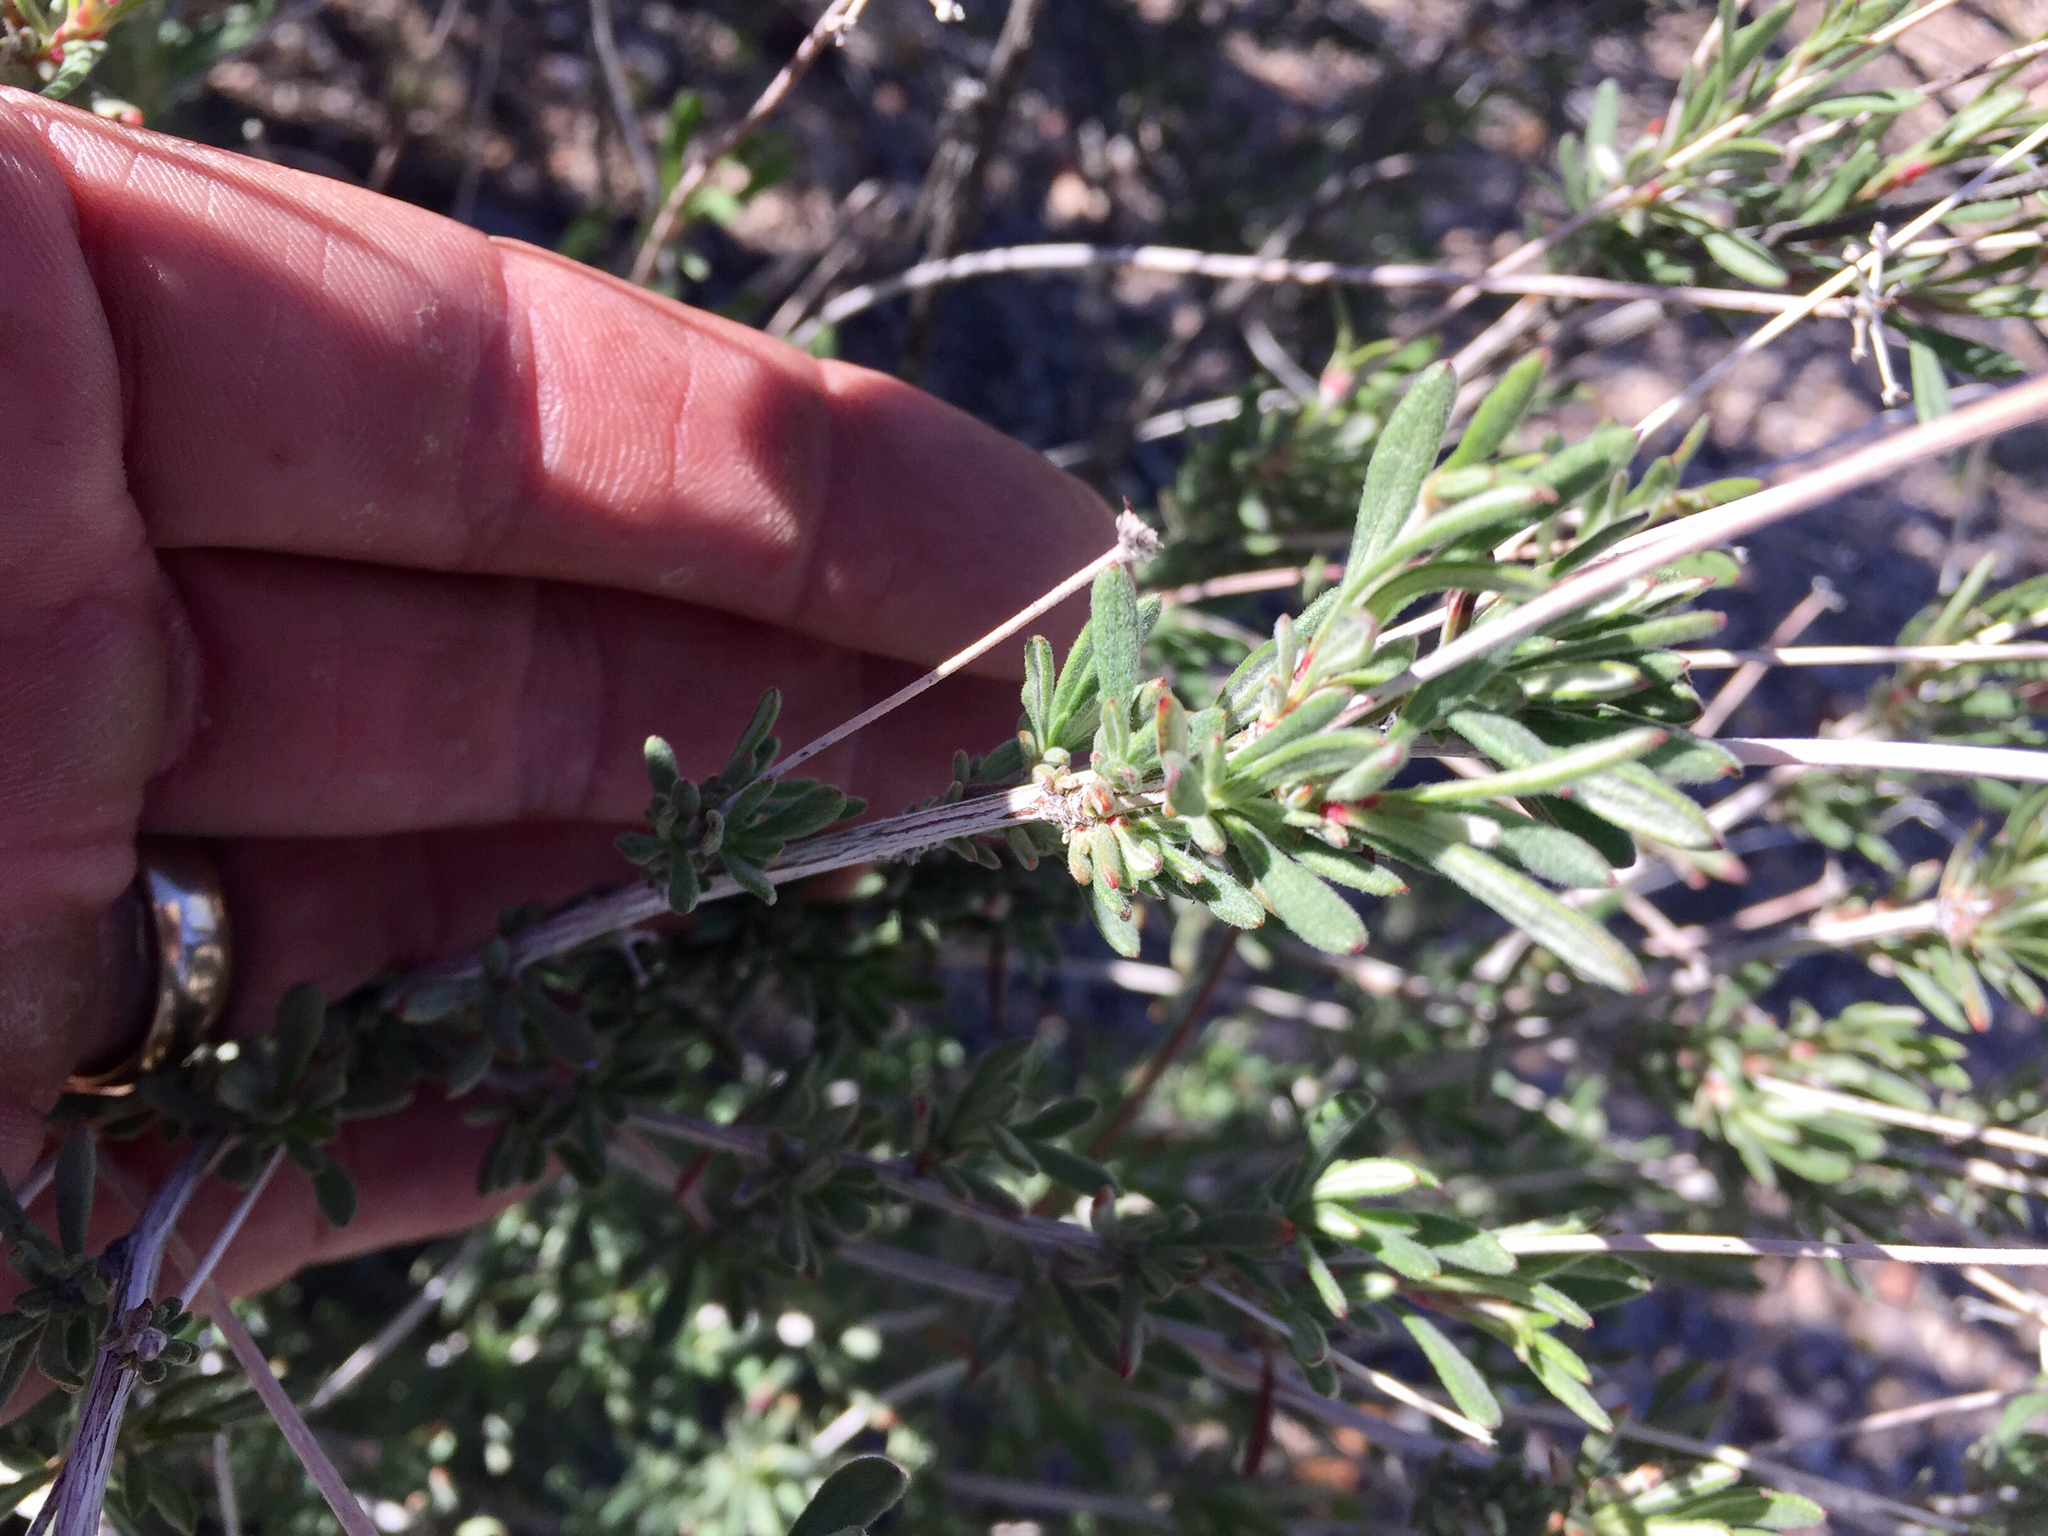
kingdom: Plantae
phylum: Tracheophyta
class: Magnoliopsida
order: Caryophyllales
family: Polygonaceae
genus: Eriogonum
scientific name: Eriogonum fasciculatum
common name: California wild buckwheat
